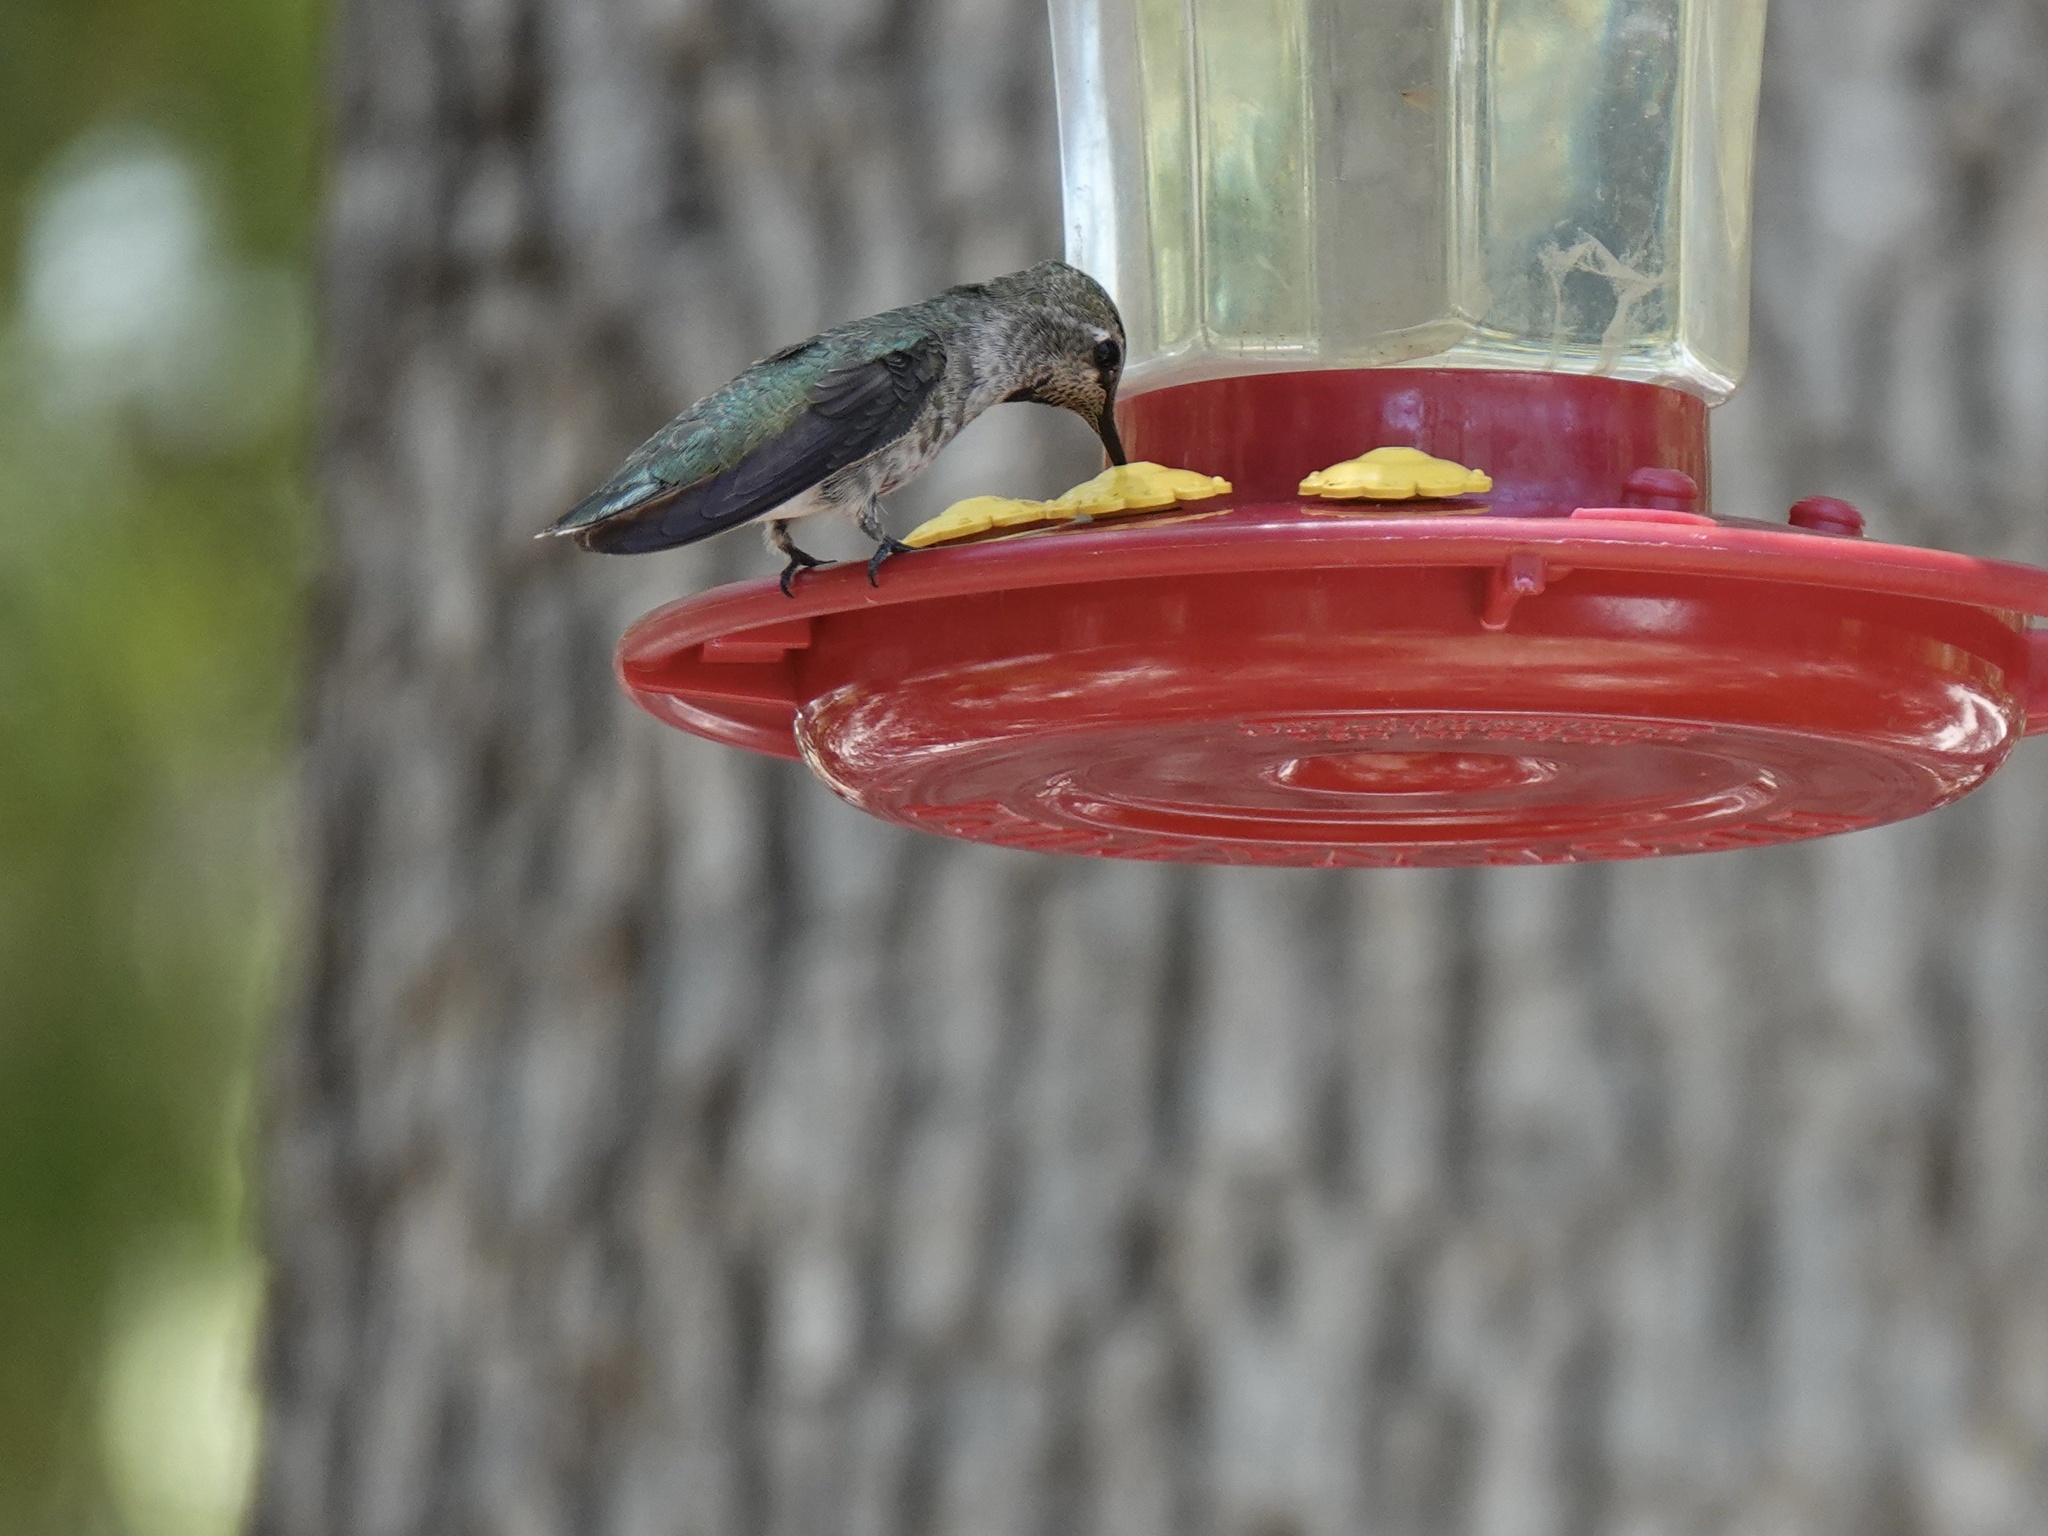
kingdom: Animalia
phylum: Chordata
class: Aves
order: Apodiformes
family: Trochilidae
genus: Calypte
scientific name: Calypte anna
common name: Anna's hummingbird
